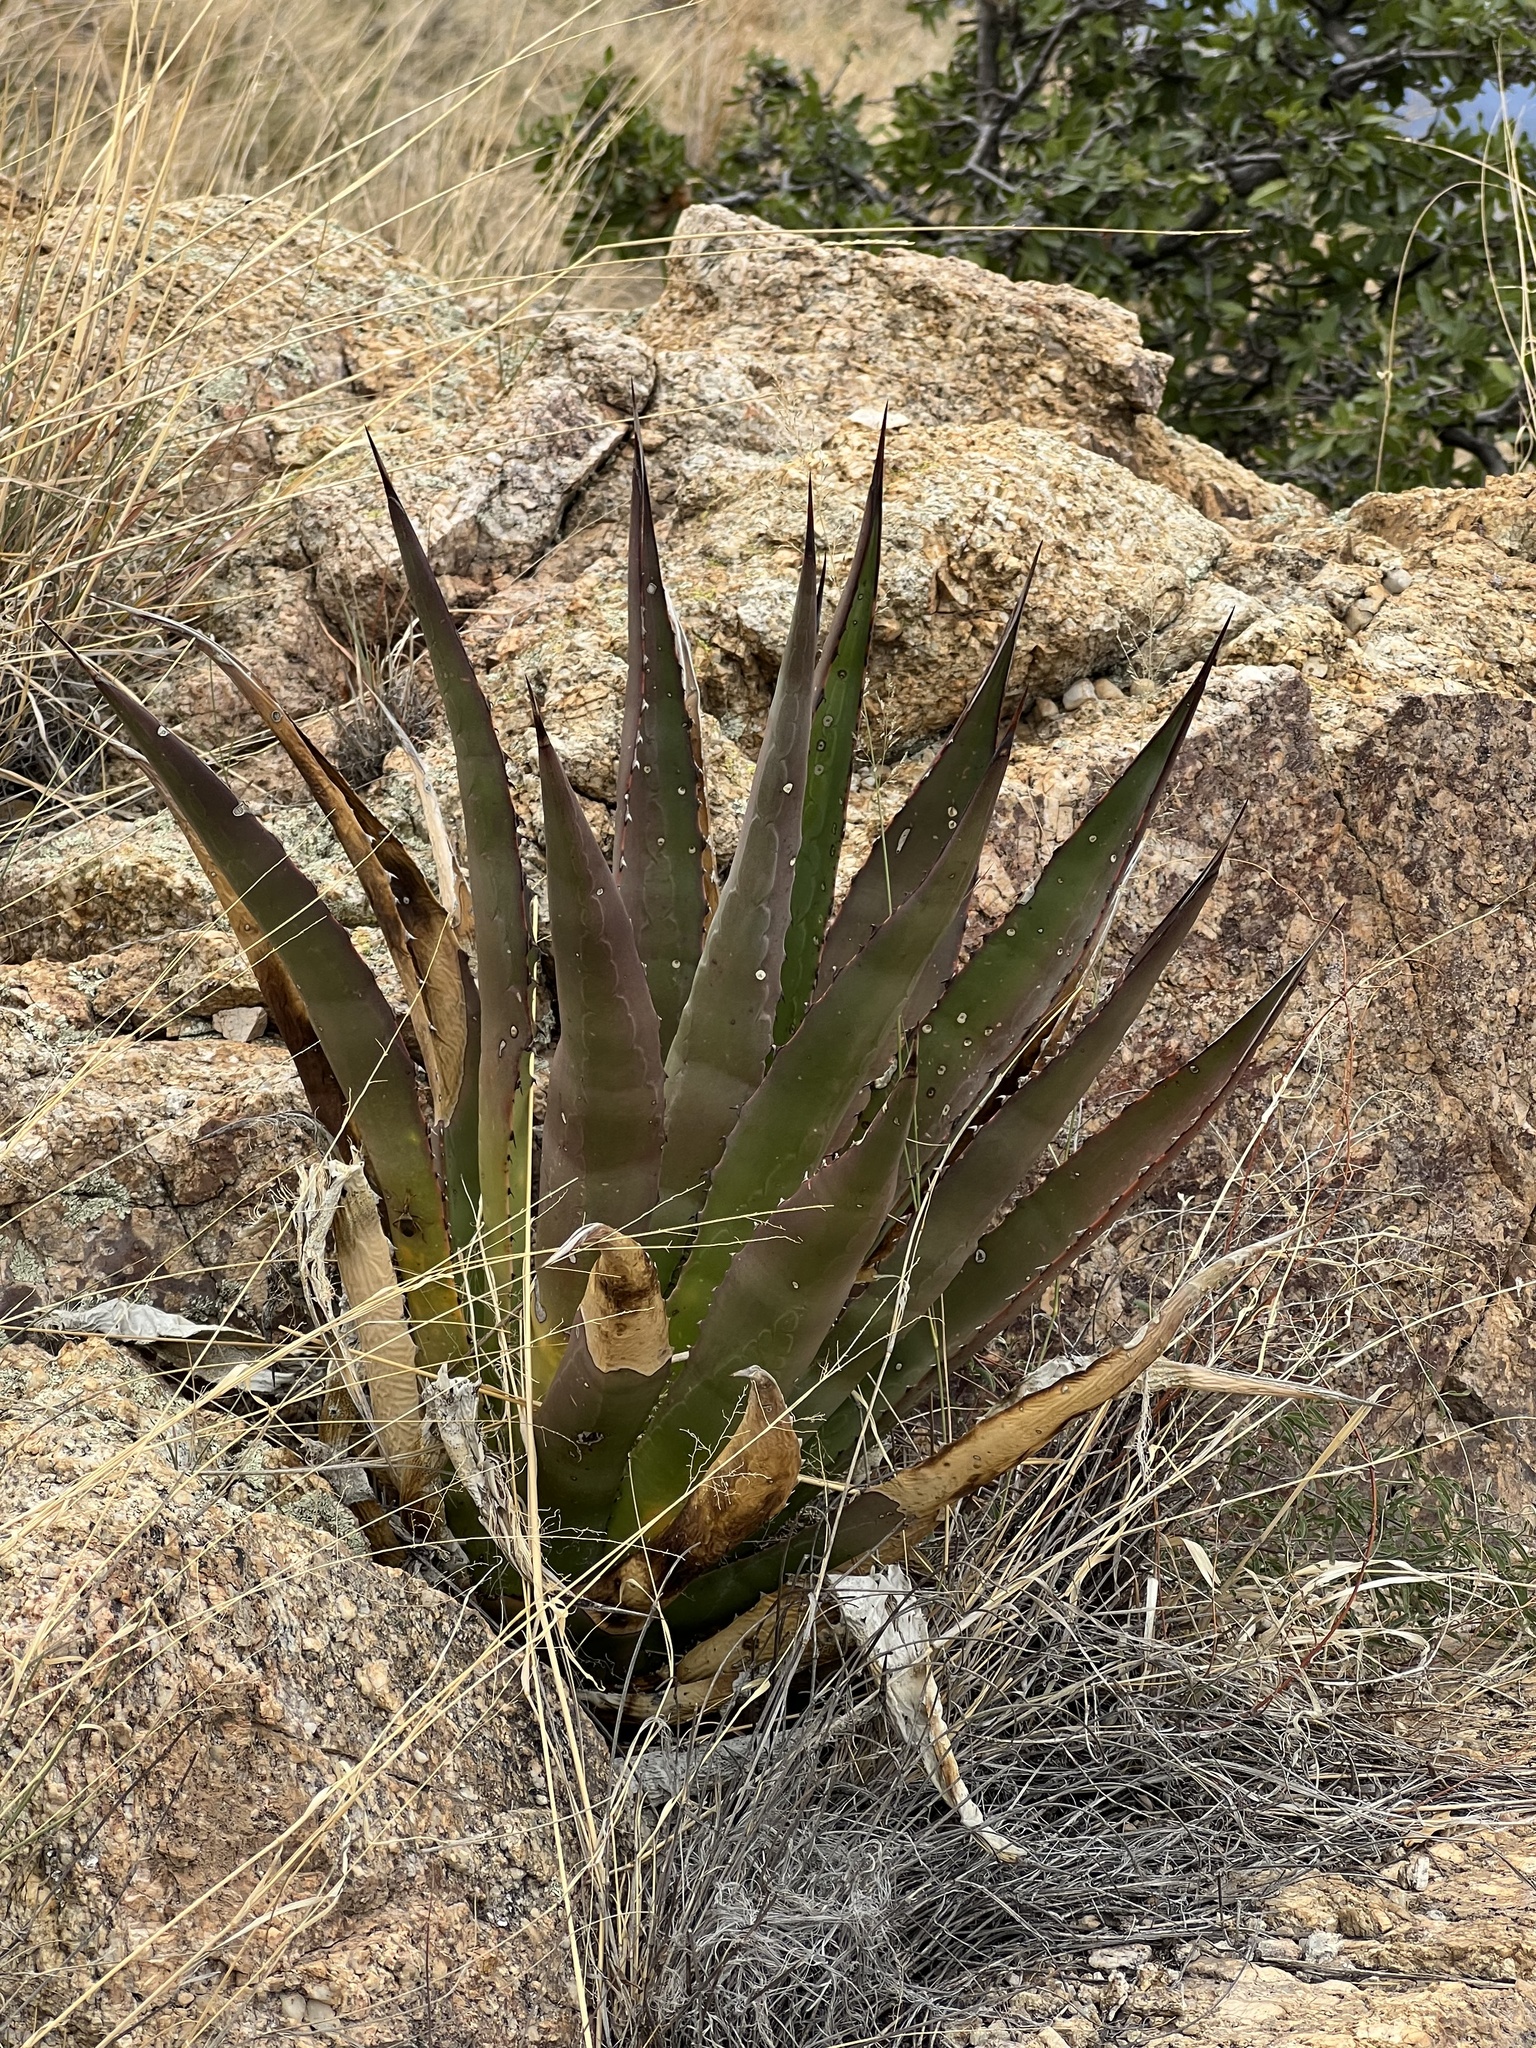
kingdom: Plantae
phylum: Tracheophyta
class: Liliopsida
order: Asparagales
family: Asparagaceae
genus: Agave
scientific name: Agave palmeri
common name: Palmer agave
